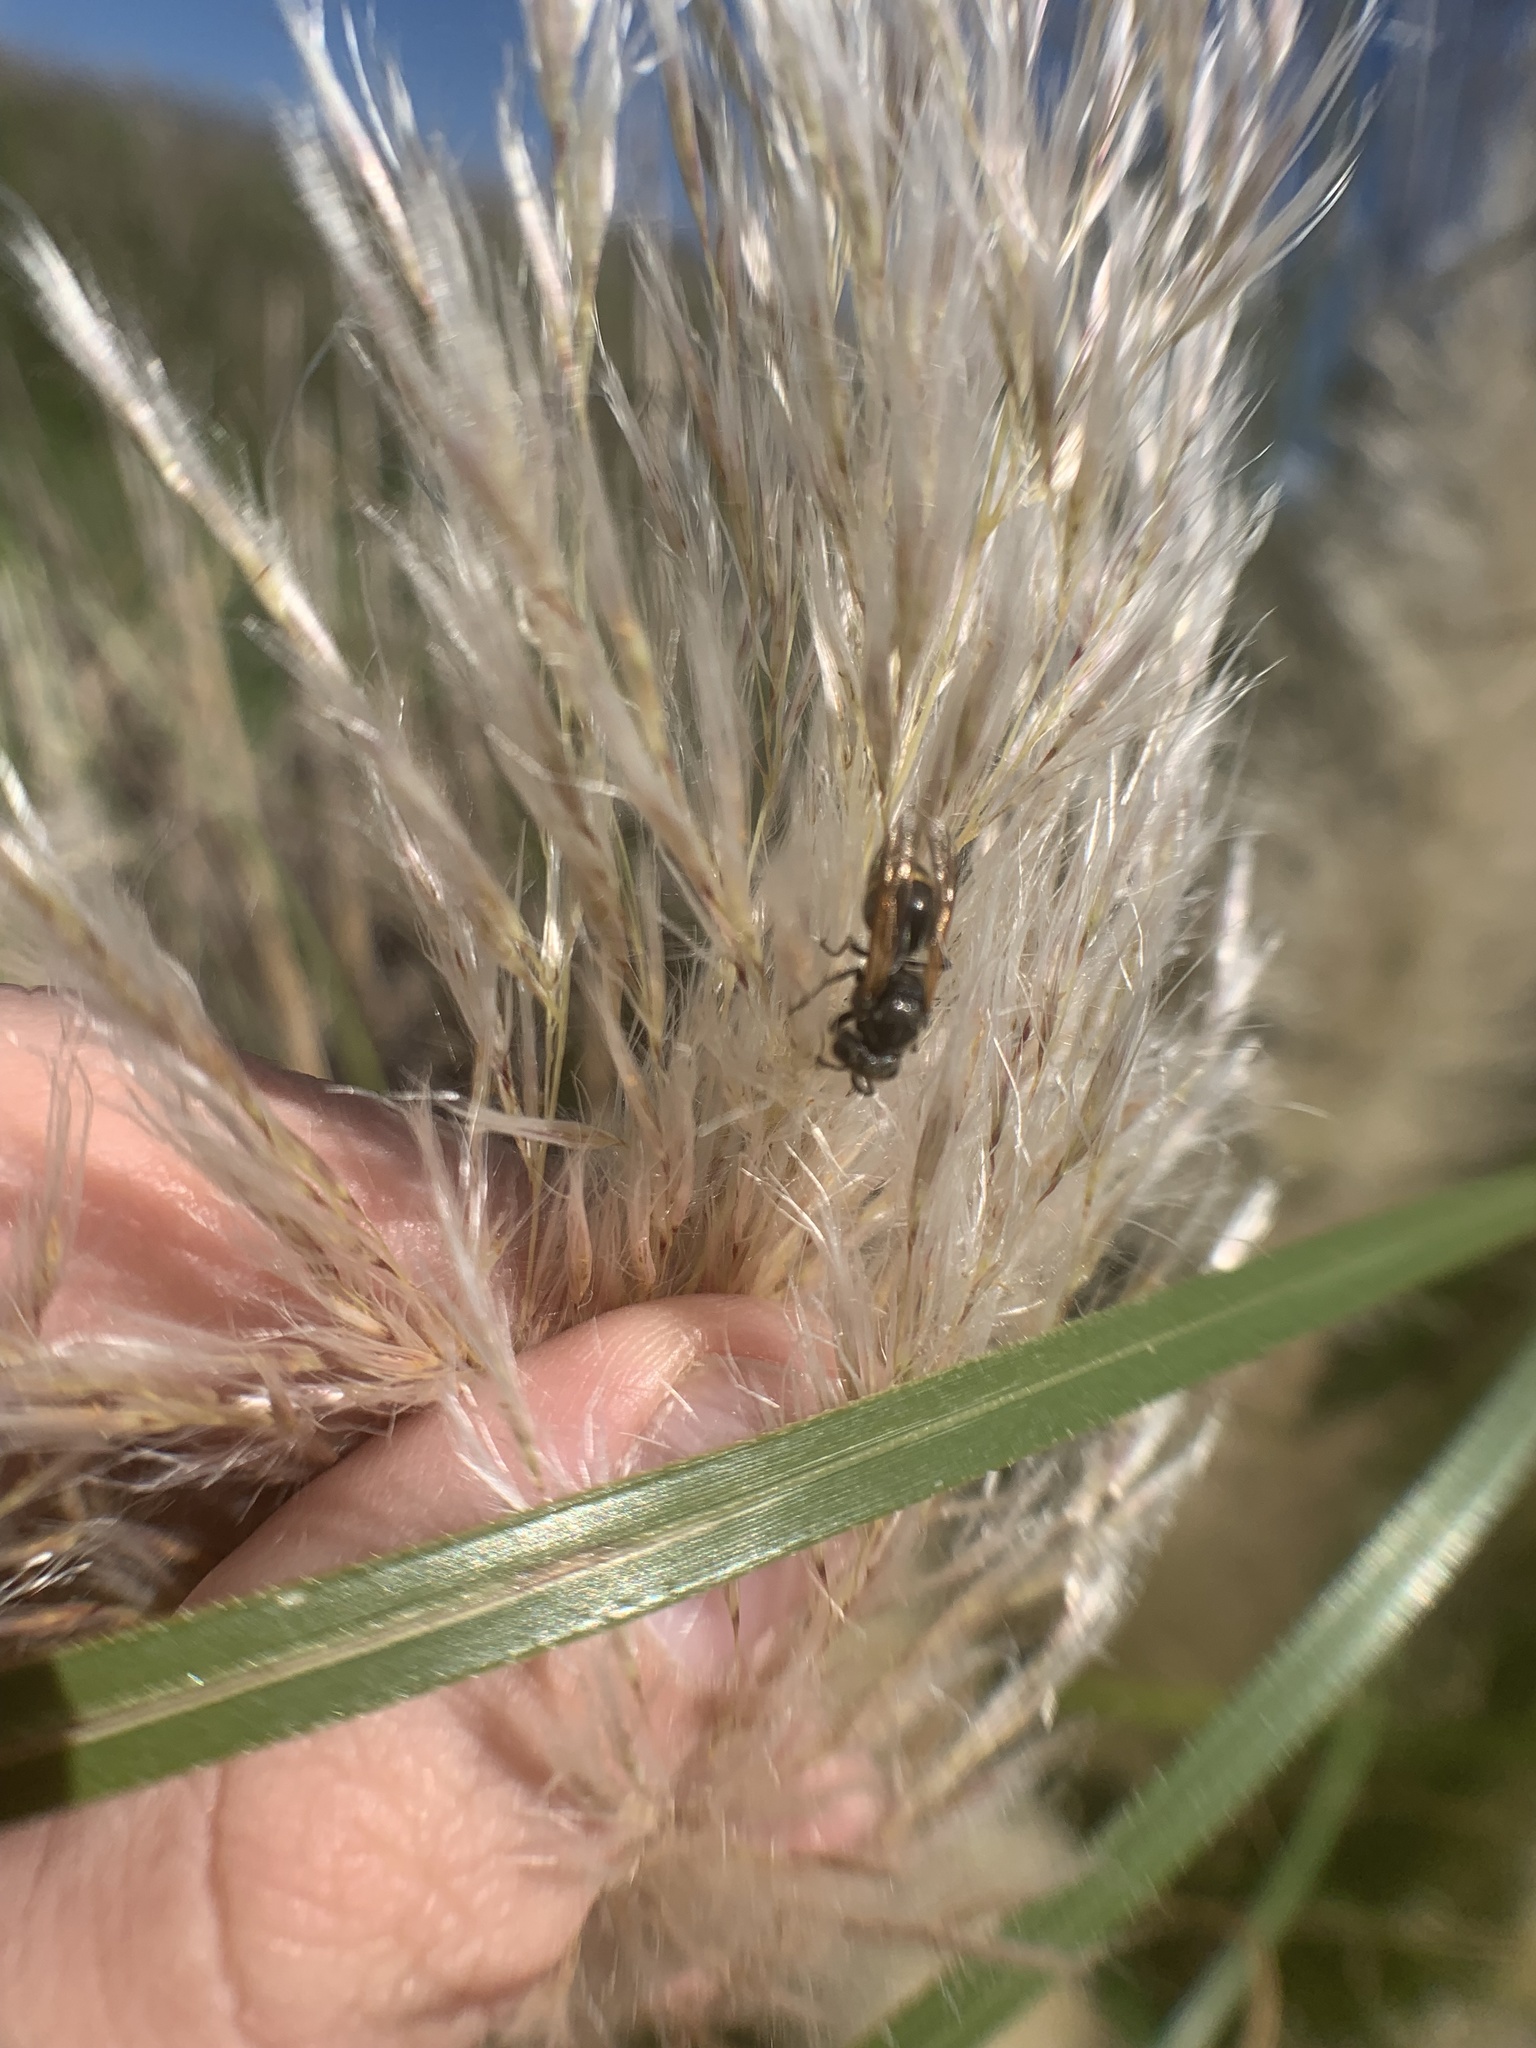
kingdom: Animalia
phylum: Arthropoda
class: Insecta
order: Hymenoptera
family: Vespidae
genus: Brachygastra
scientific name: Brachygastra lecheguana
